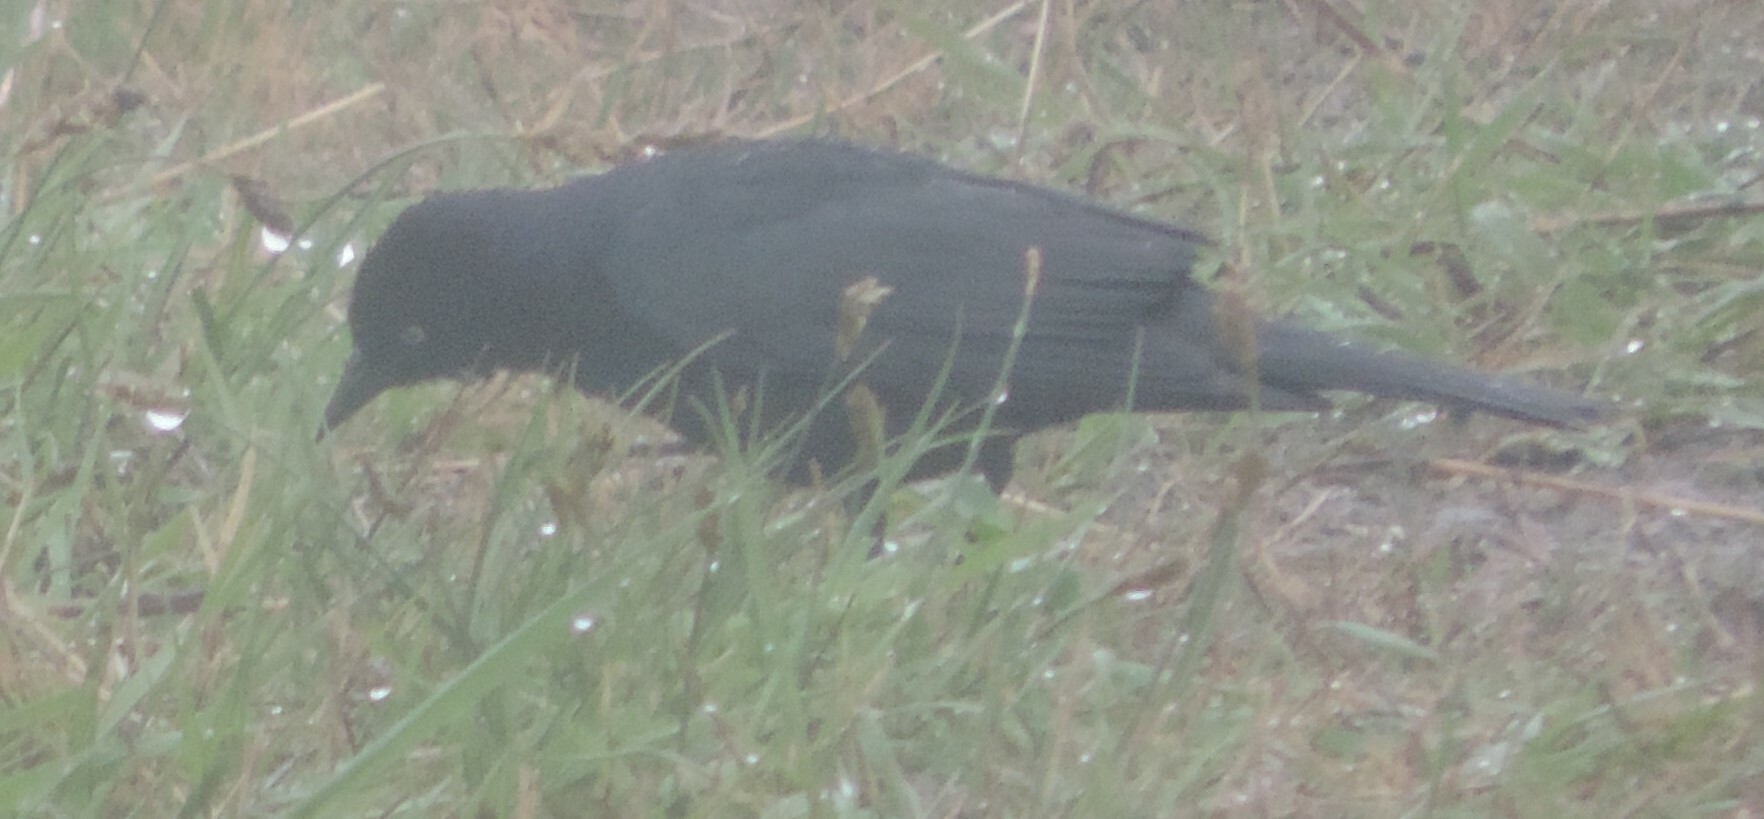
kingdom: Animalia
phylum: Chordata
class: Aves
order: Passeriformes
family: Icteridae
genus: Euphagus
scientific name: Euphagus cyanocephalus
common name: Brewer's blackbird
